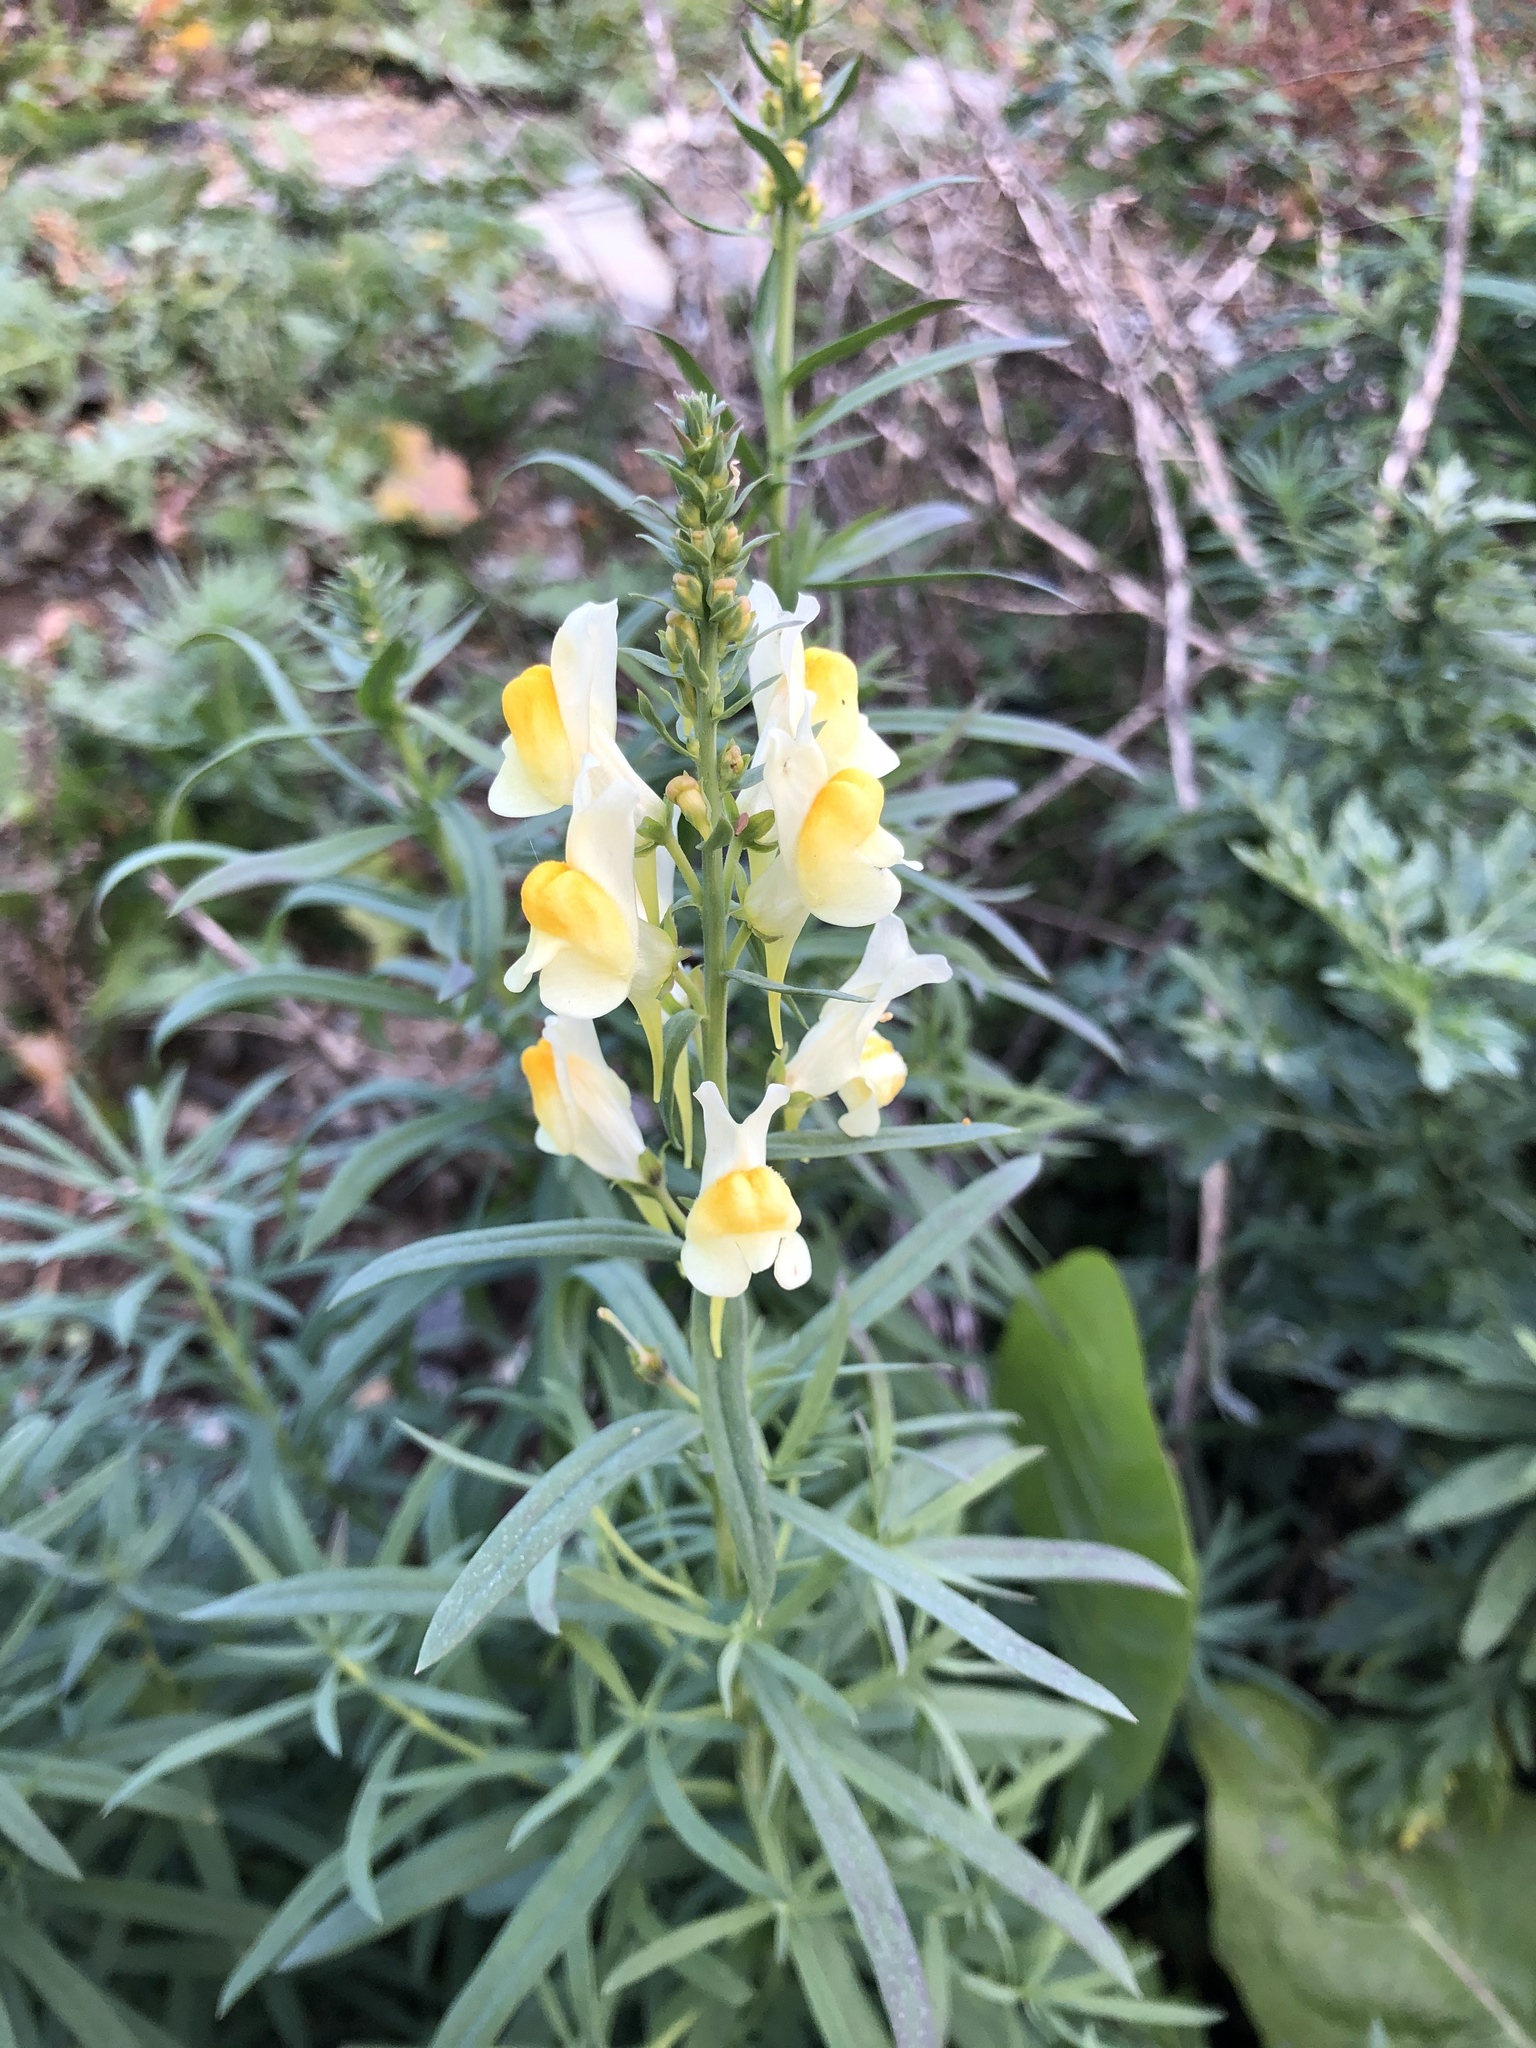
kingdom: Plantae
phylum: Tracheophyta
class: Magnoliopsida
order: Lamiales
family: Plantaginaceae
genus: Linaria
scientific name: Linaria vulgaris
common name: Butter and eggs
